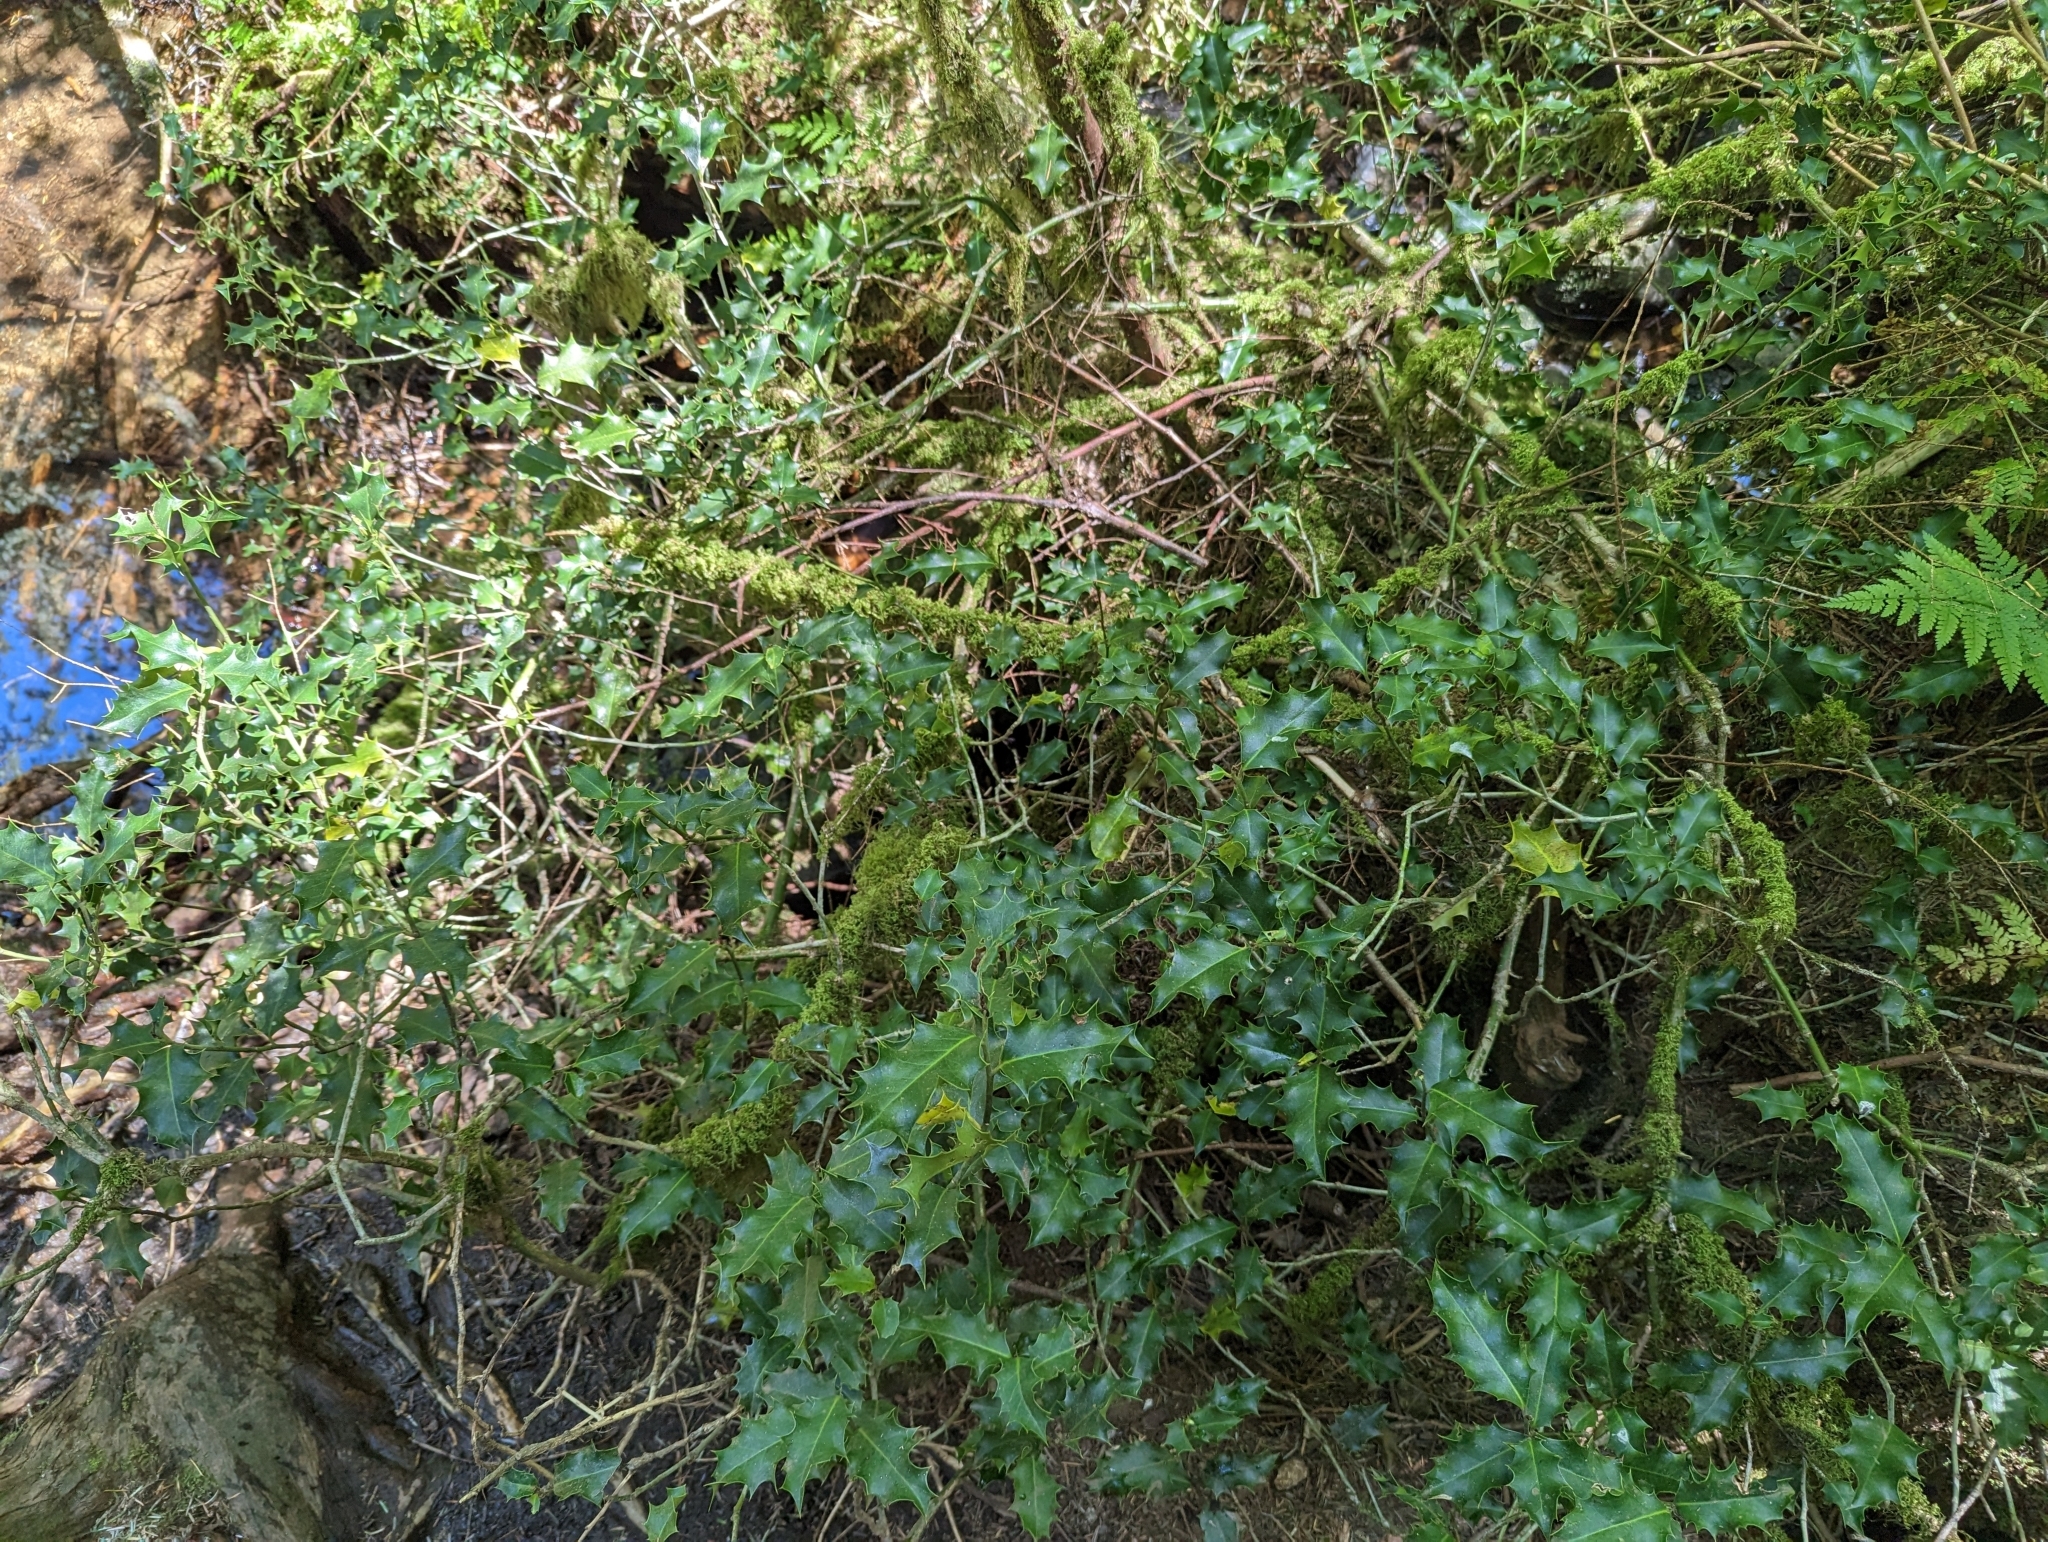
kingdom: Plantae
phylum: Tracheophyta
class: Magnoliopsida
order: Aquifoliales
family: Aquifoliaceae
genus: Ilex
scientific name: Ilex aquifolium
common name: English holly
